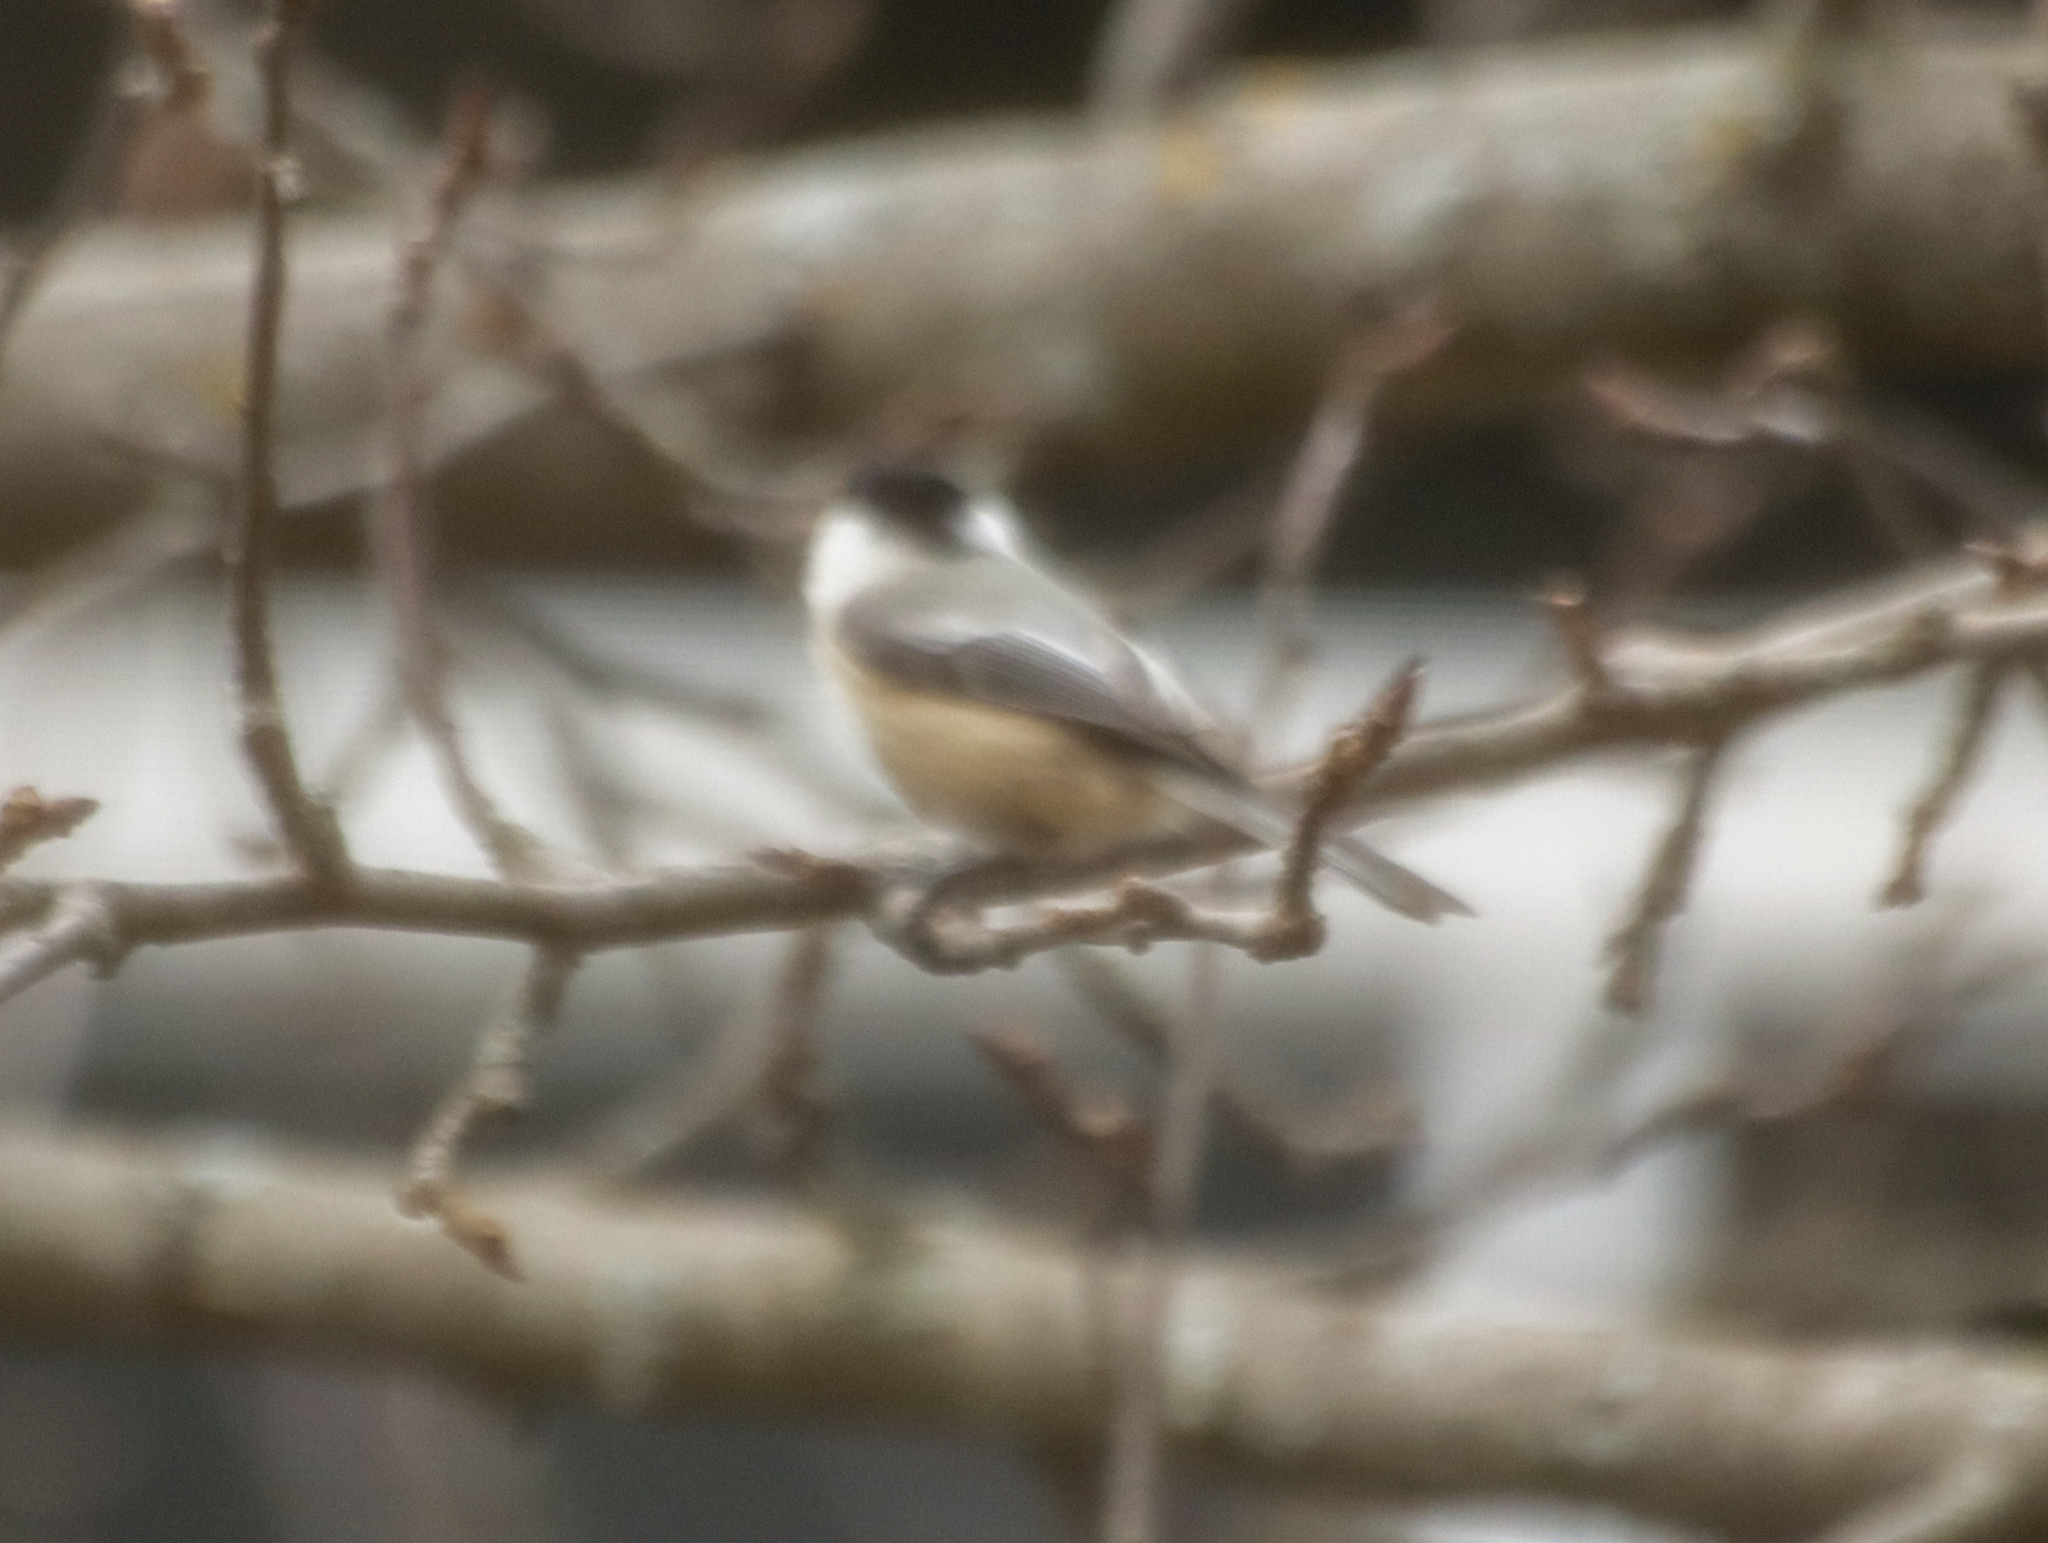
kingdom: Animalia
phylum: Chordata
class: Aves
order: Passeriformes
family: Paridae
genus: Poecile
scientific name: Poecile atricapillus
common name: Black-capped chickadee
